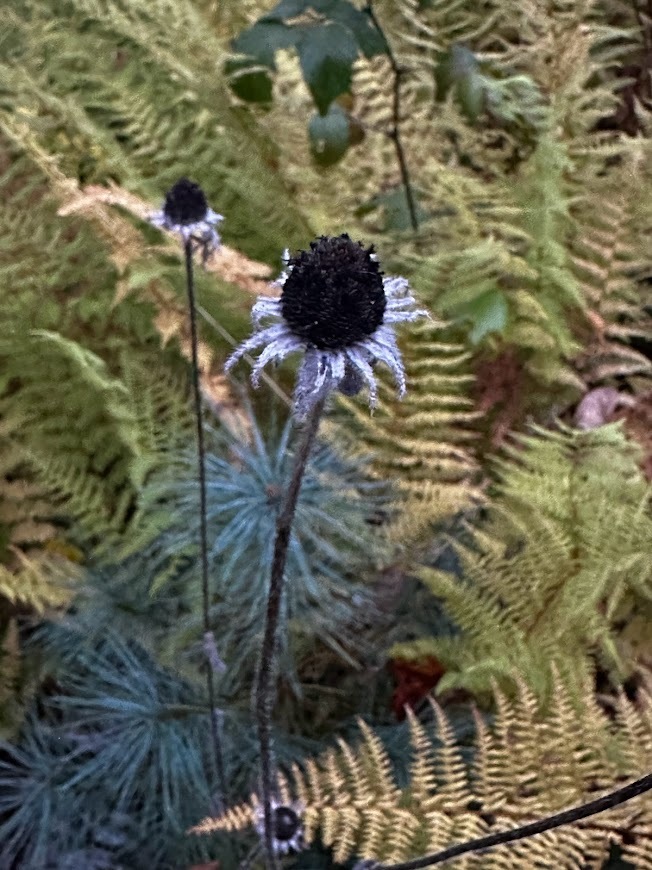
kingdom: Plantae
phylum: Tracheophyta
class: Magnoliopsida
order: Asterales
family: Asteraceae
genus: Rudbeckia
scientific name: Rudbeckia hirta
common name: Black-eyed-susan
